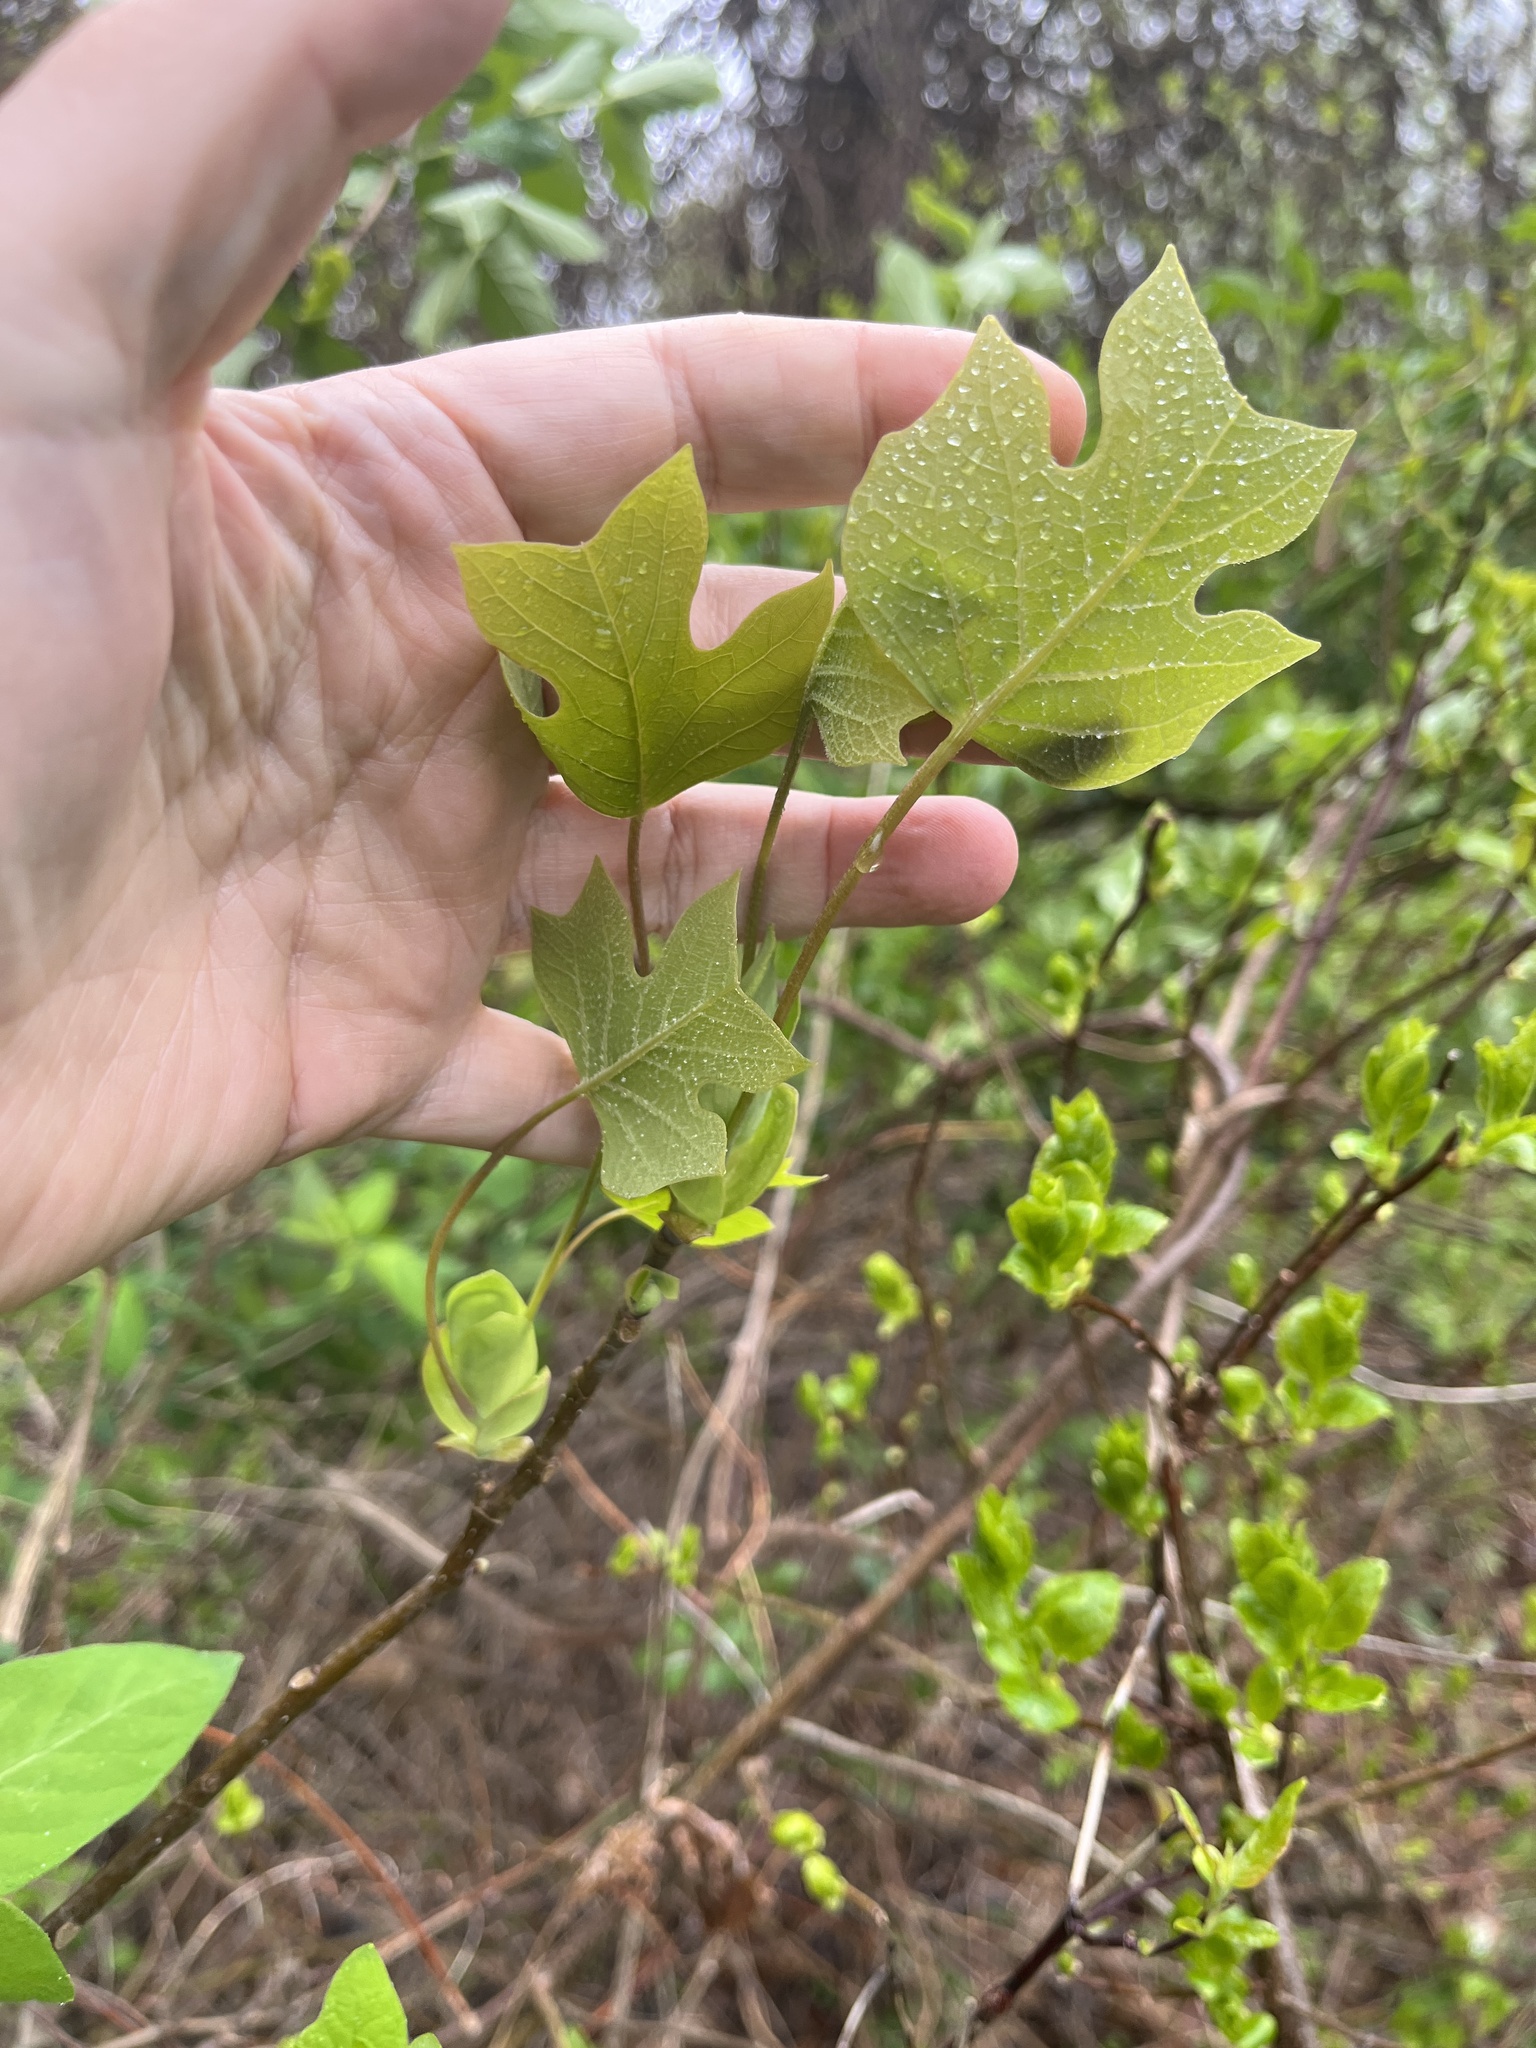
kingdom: Plantae
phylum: Tracheophyta
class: Magnoliopsida
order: Magnoliales
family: Magnoliaceae
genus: Liriodendron
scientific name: Liriodendron tulipifera
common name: Tulip tree
